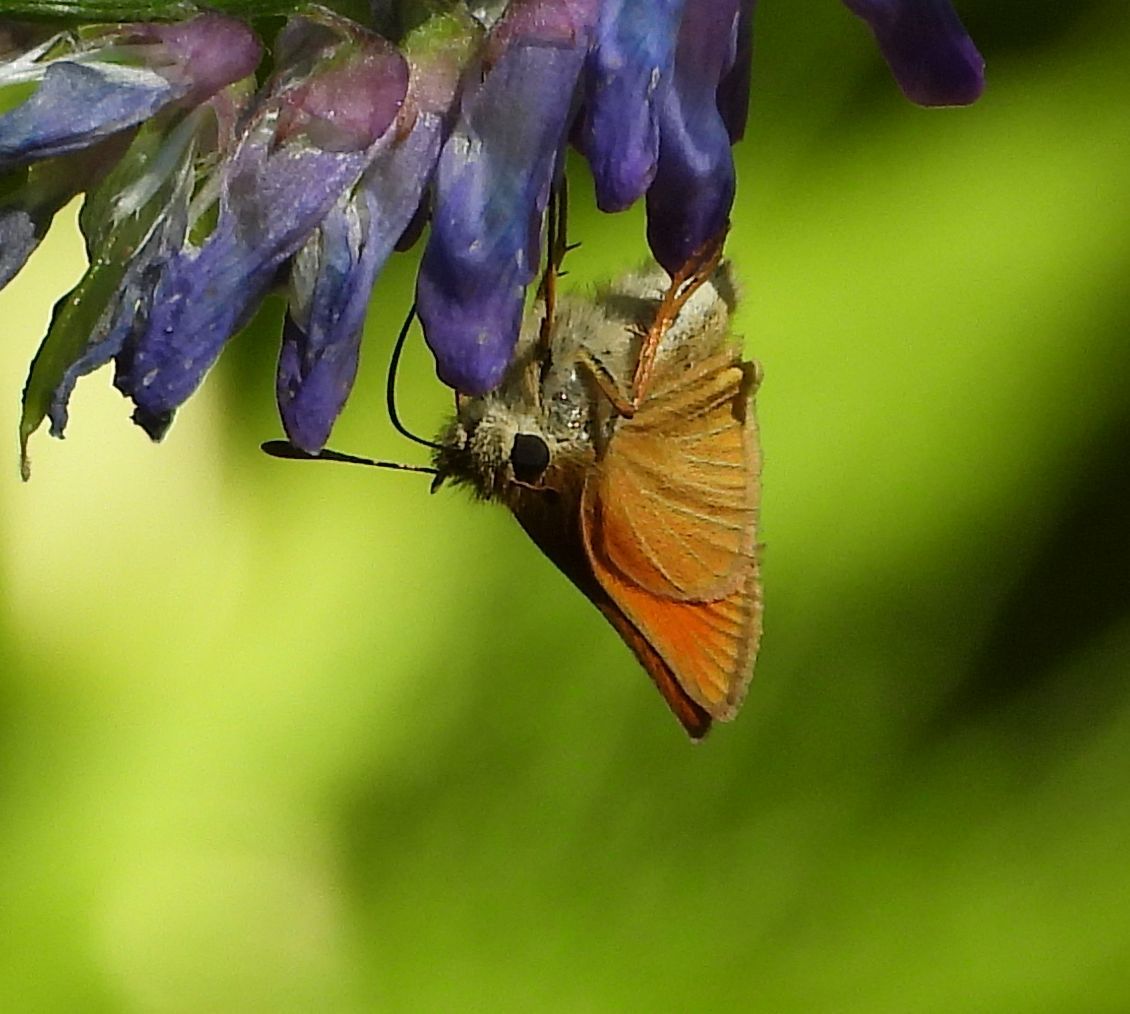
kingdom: Animalia
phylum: Arthropoda
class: Insecta
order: Lepidoptera
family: Hesperiidae
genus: Thymelicus
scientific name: Thymelicus lineola
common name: Essex skipper
